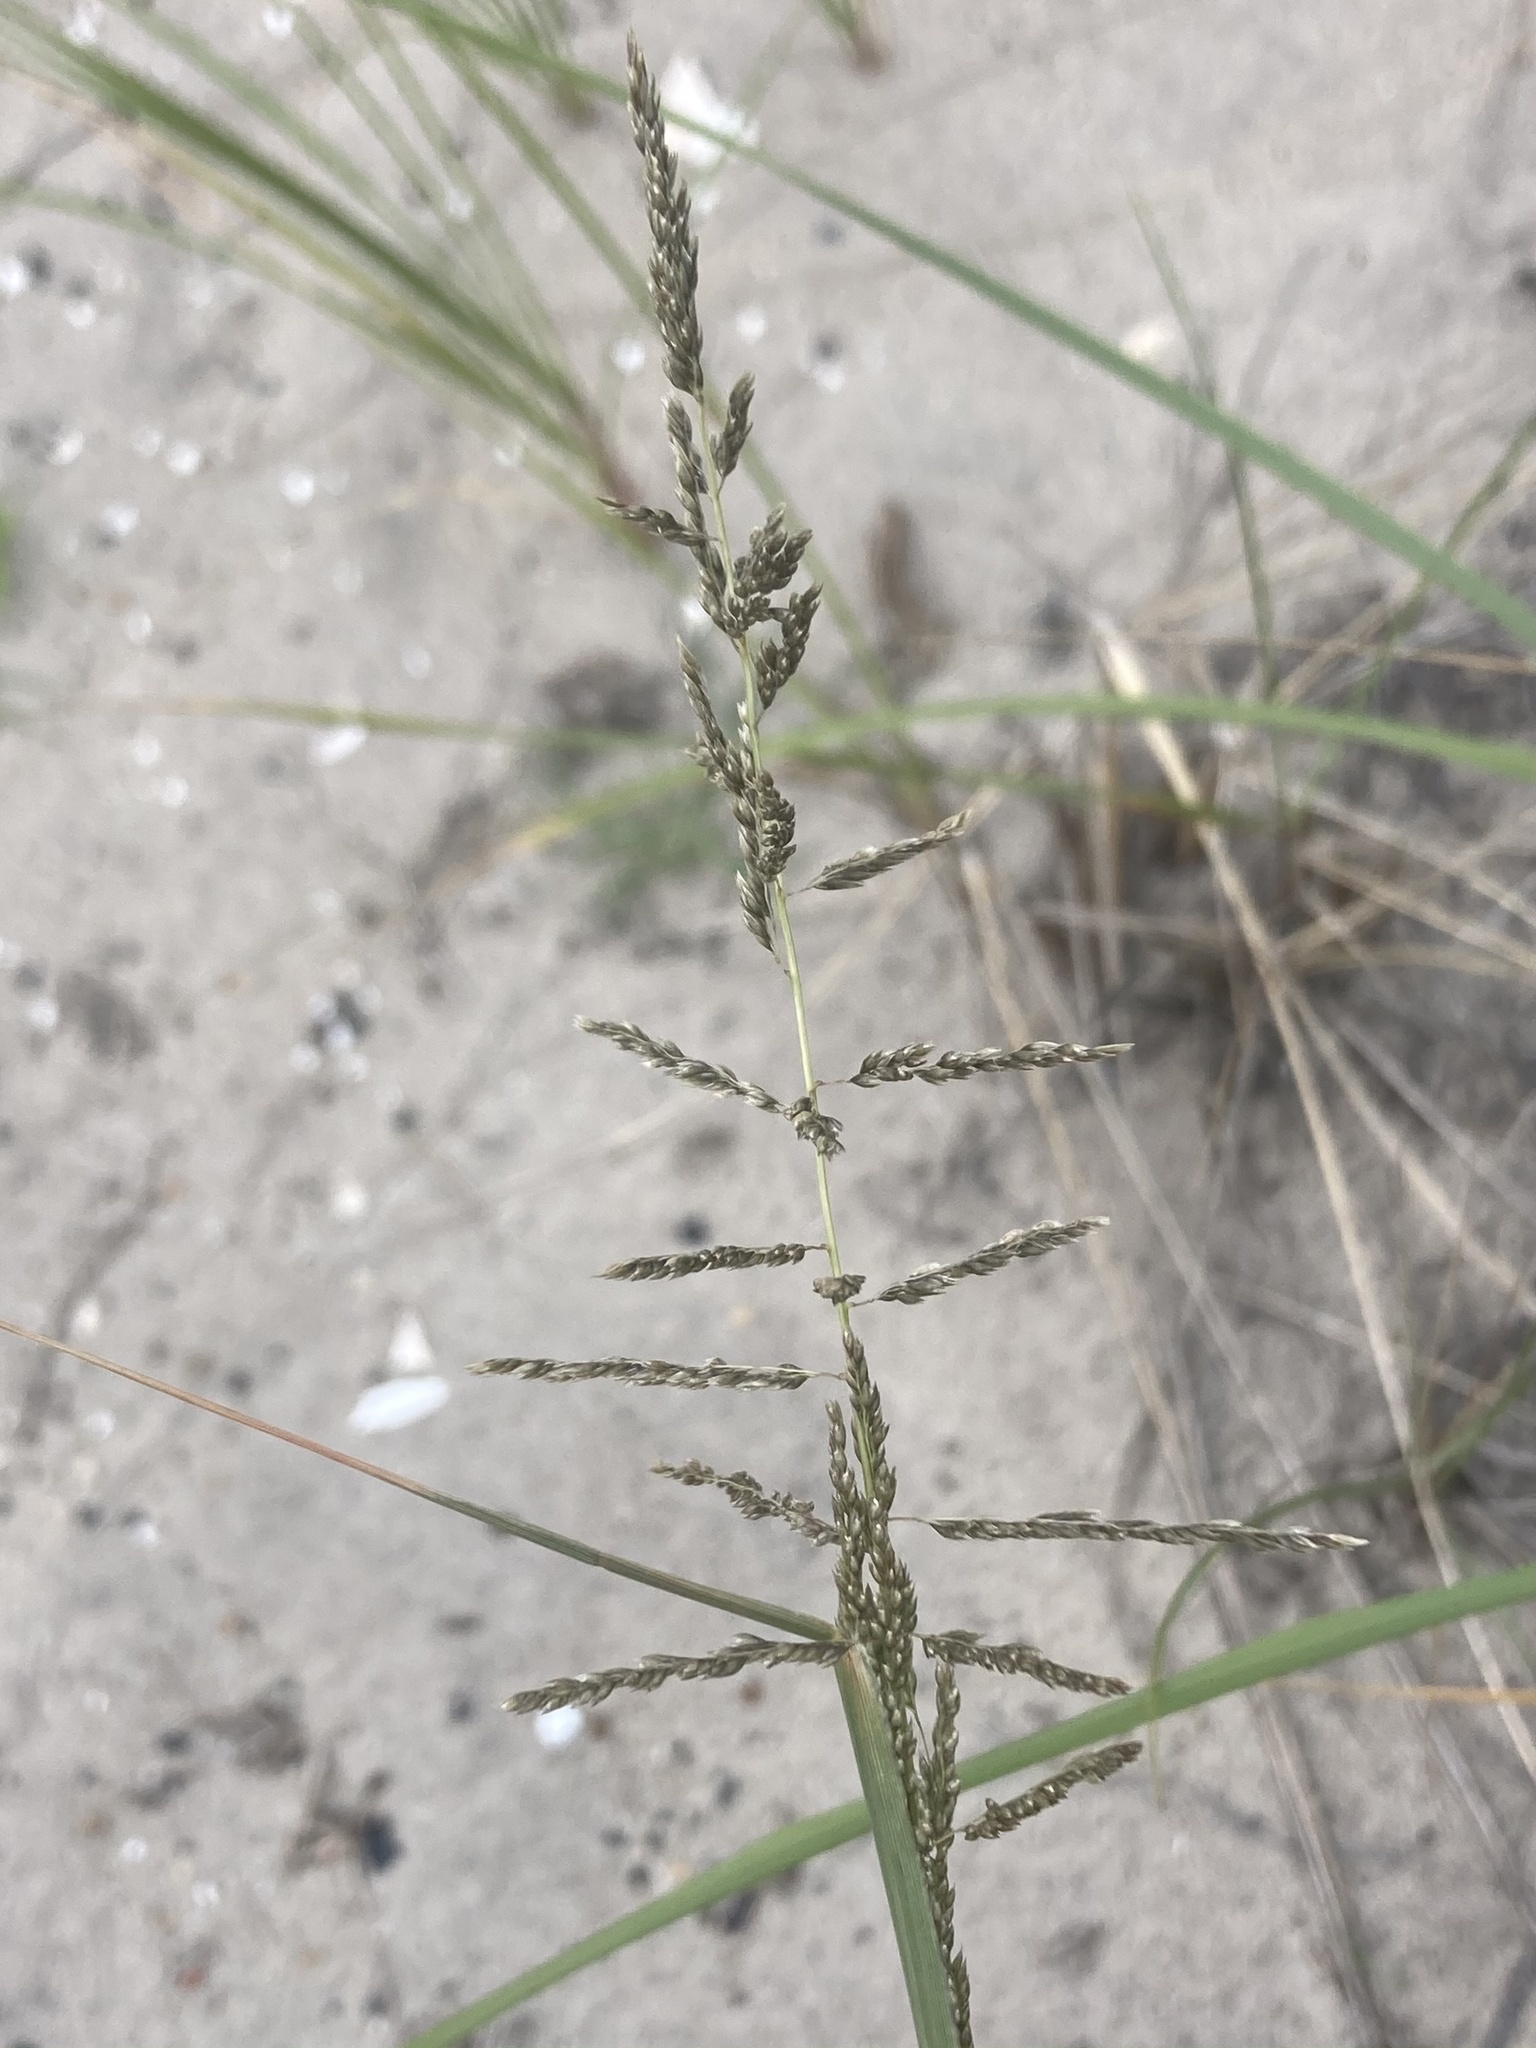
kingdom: Plantae
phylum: Tracheophyta
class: Liliopsida
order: Poales
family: Poaceae
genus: Sporobolus
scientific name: Sporobolus cryptandrus
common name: Sand dropseed
